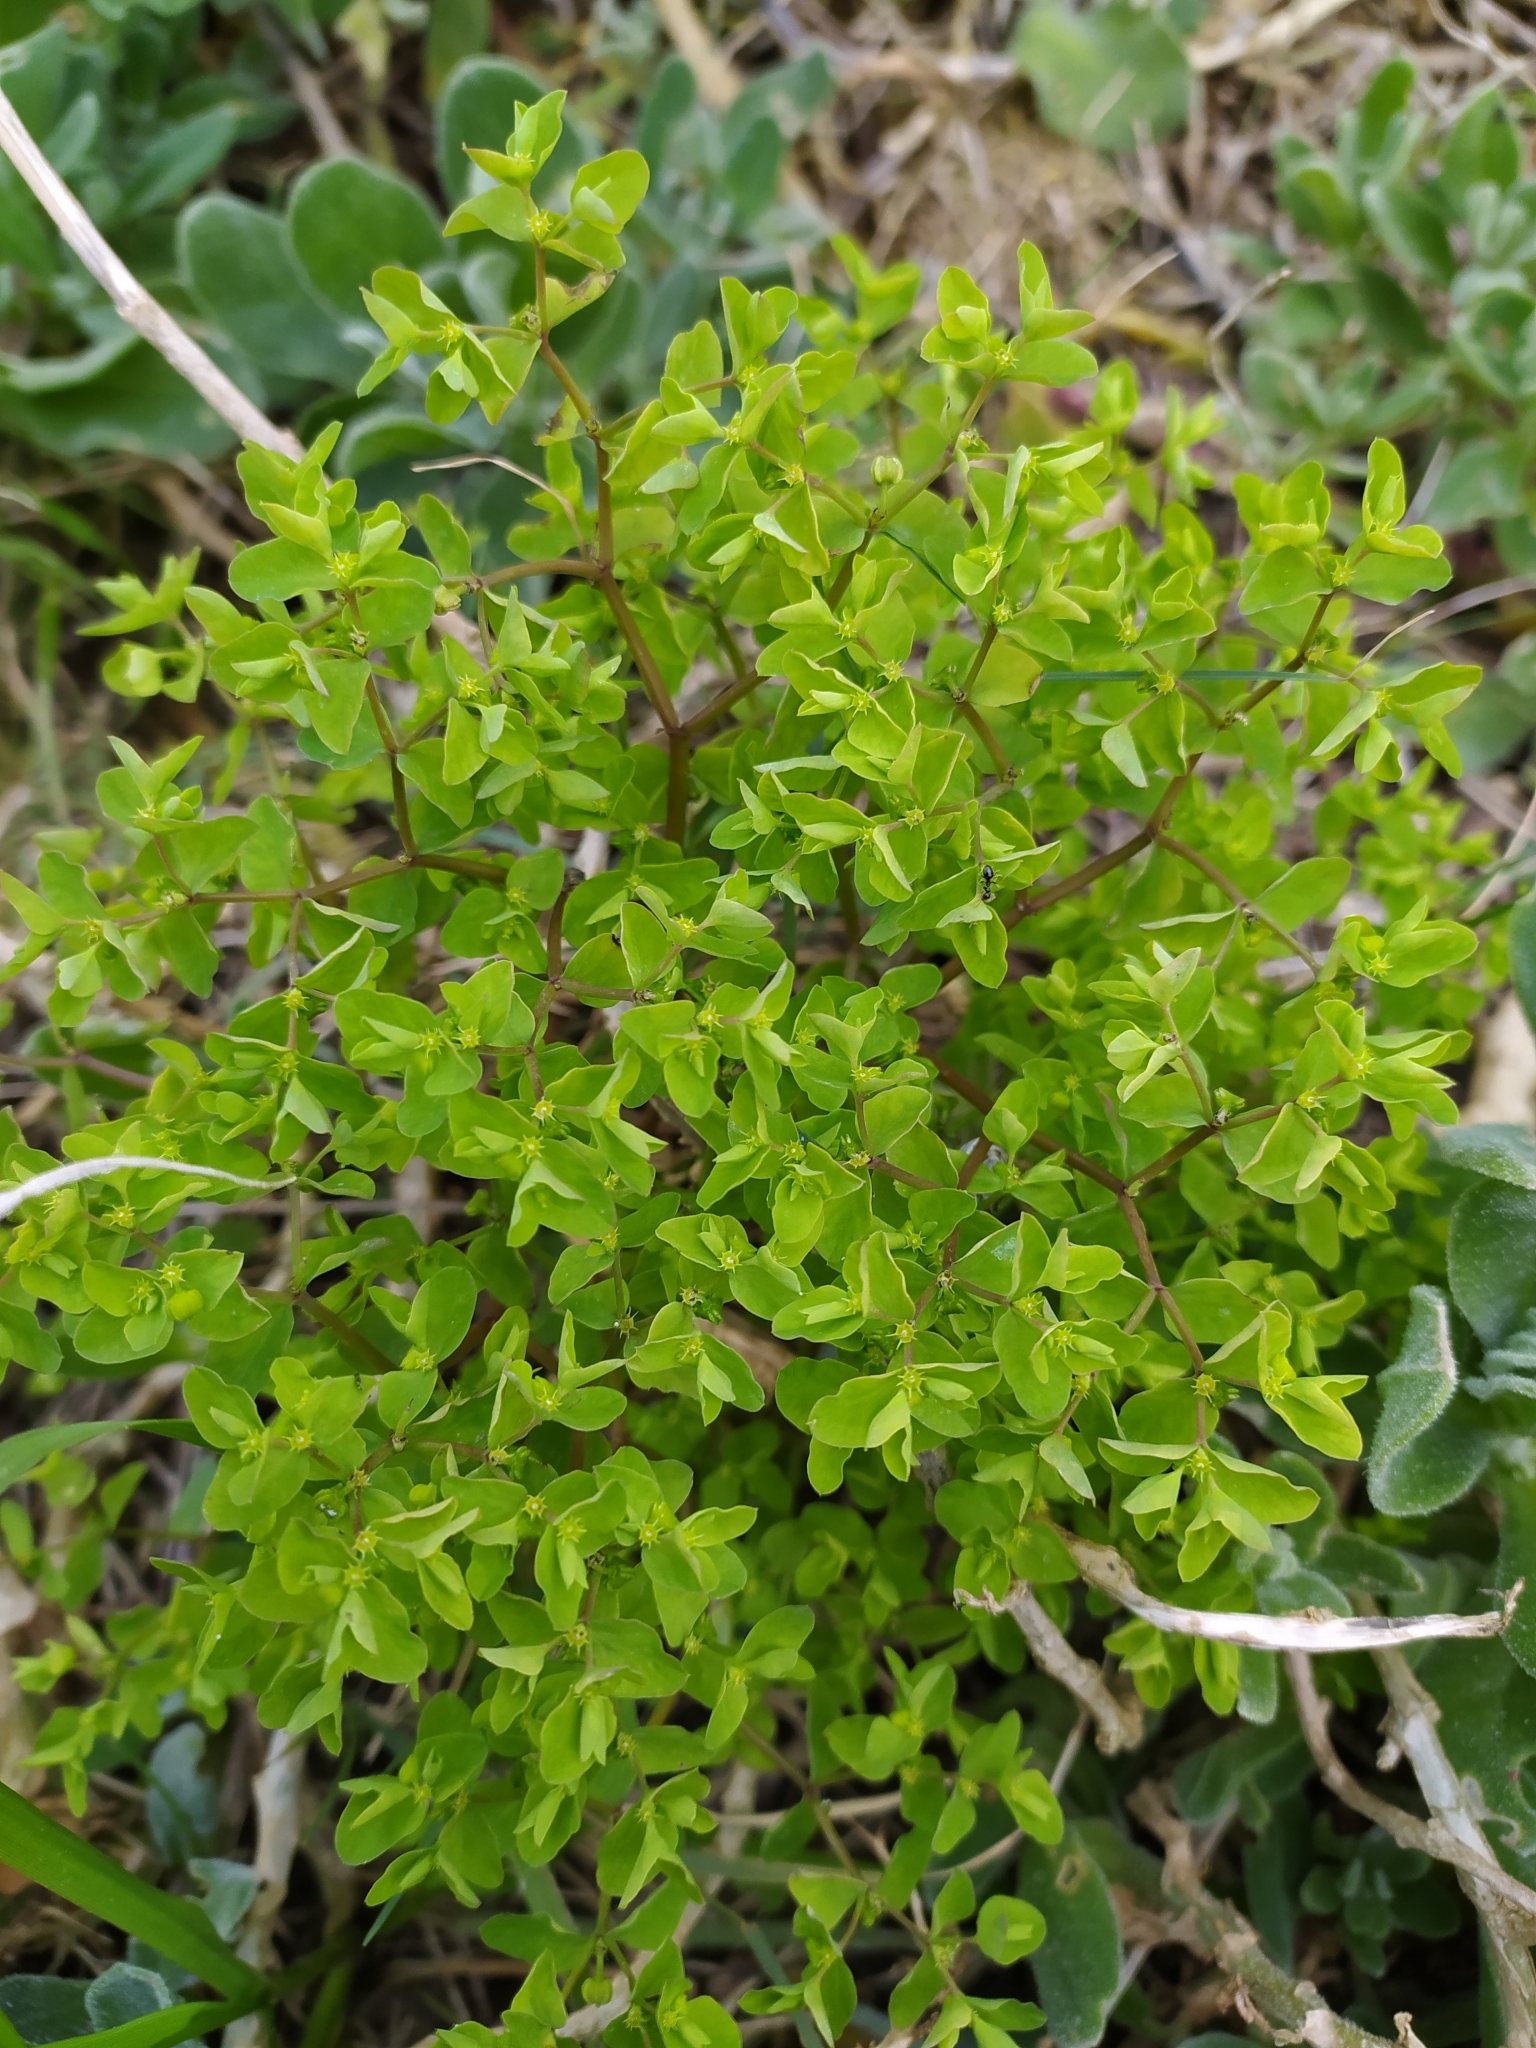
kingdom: Plantae
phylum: Tracheophyta
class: Magnoliopsida
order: Malpighiales
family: Euphorbiaceae
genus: Euphorbia
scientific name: Euphorbia peplus
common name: Petty spurge
